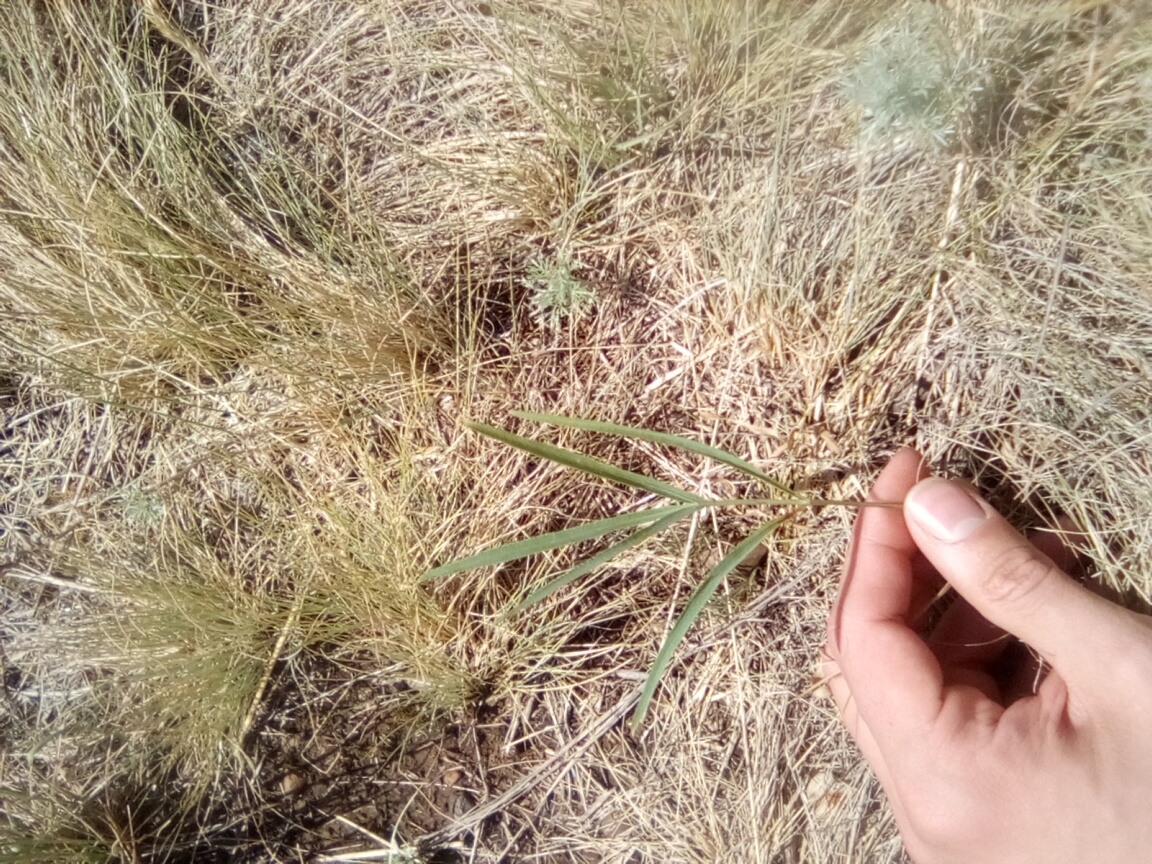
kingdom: Plantae
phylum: Tracheophyta
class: Magnoliopsida
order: Apiales
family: Apiaceae
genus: Falcaria
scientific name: Falcaria vulgaris
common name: Longleaf
